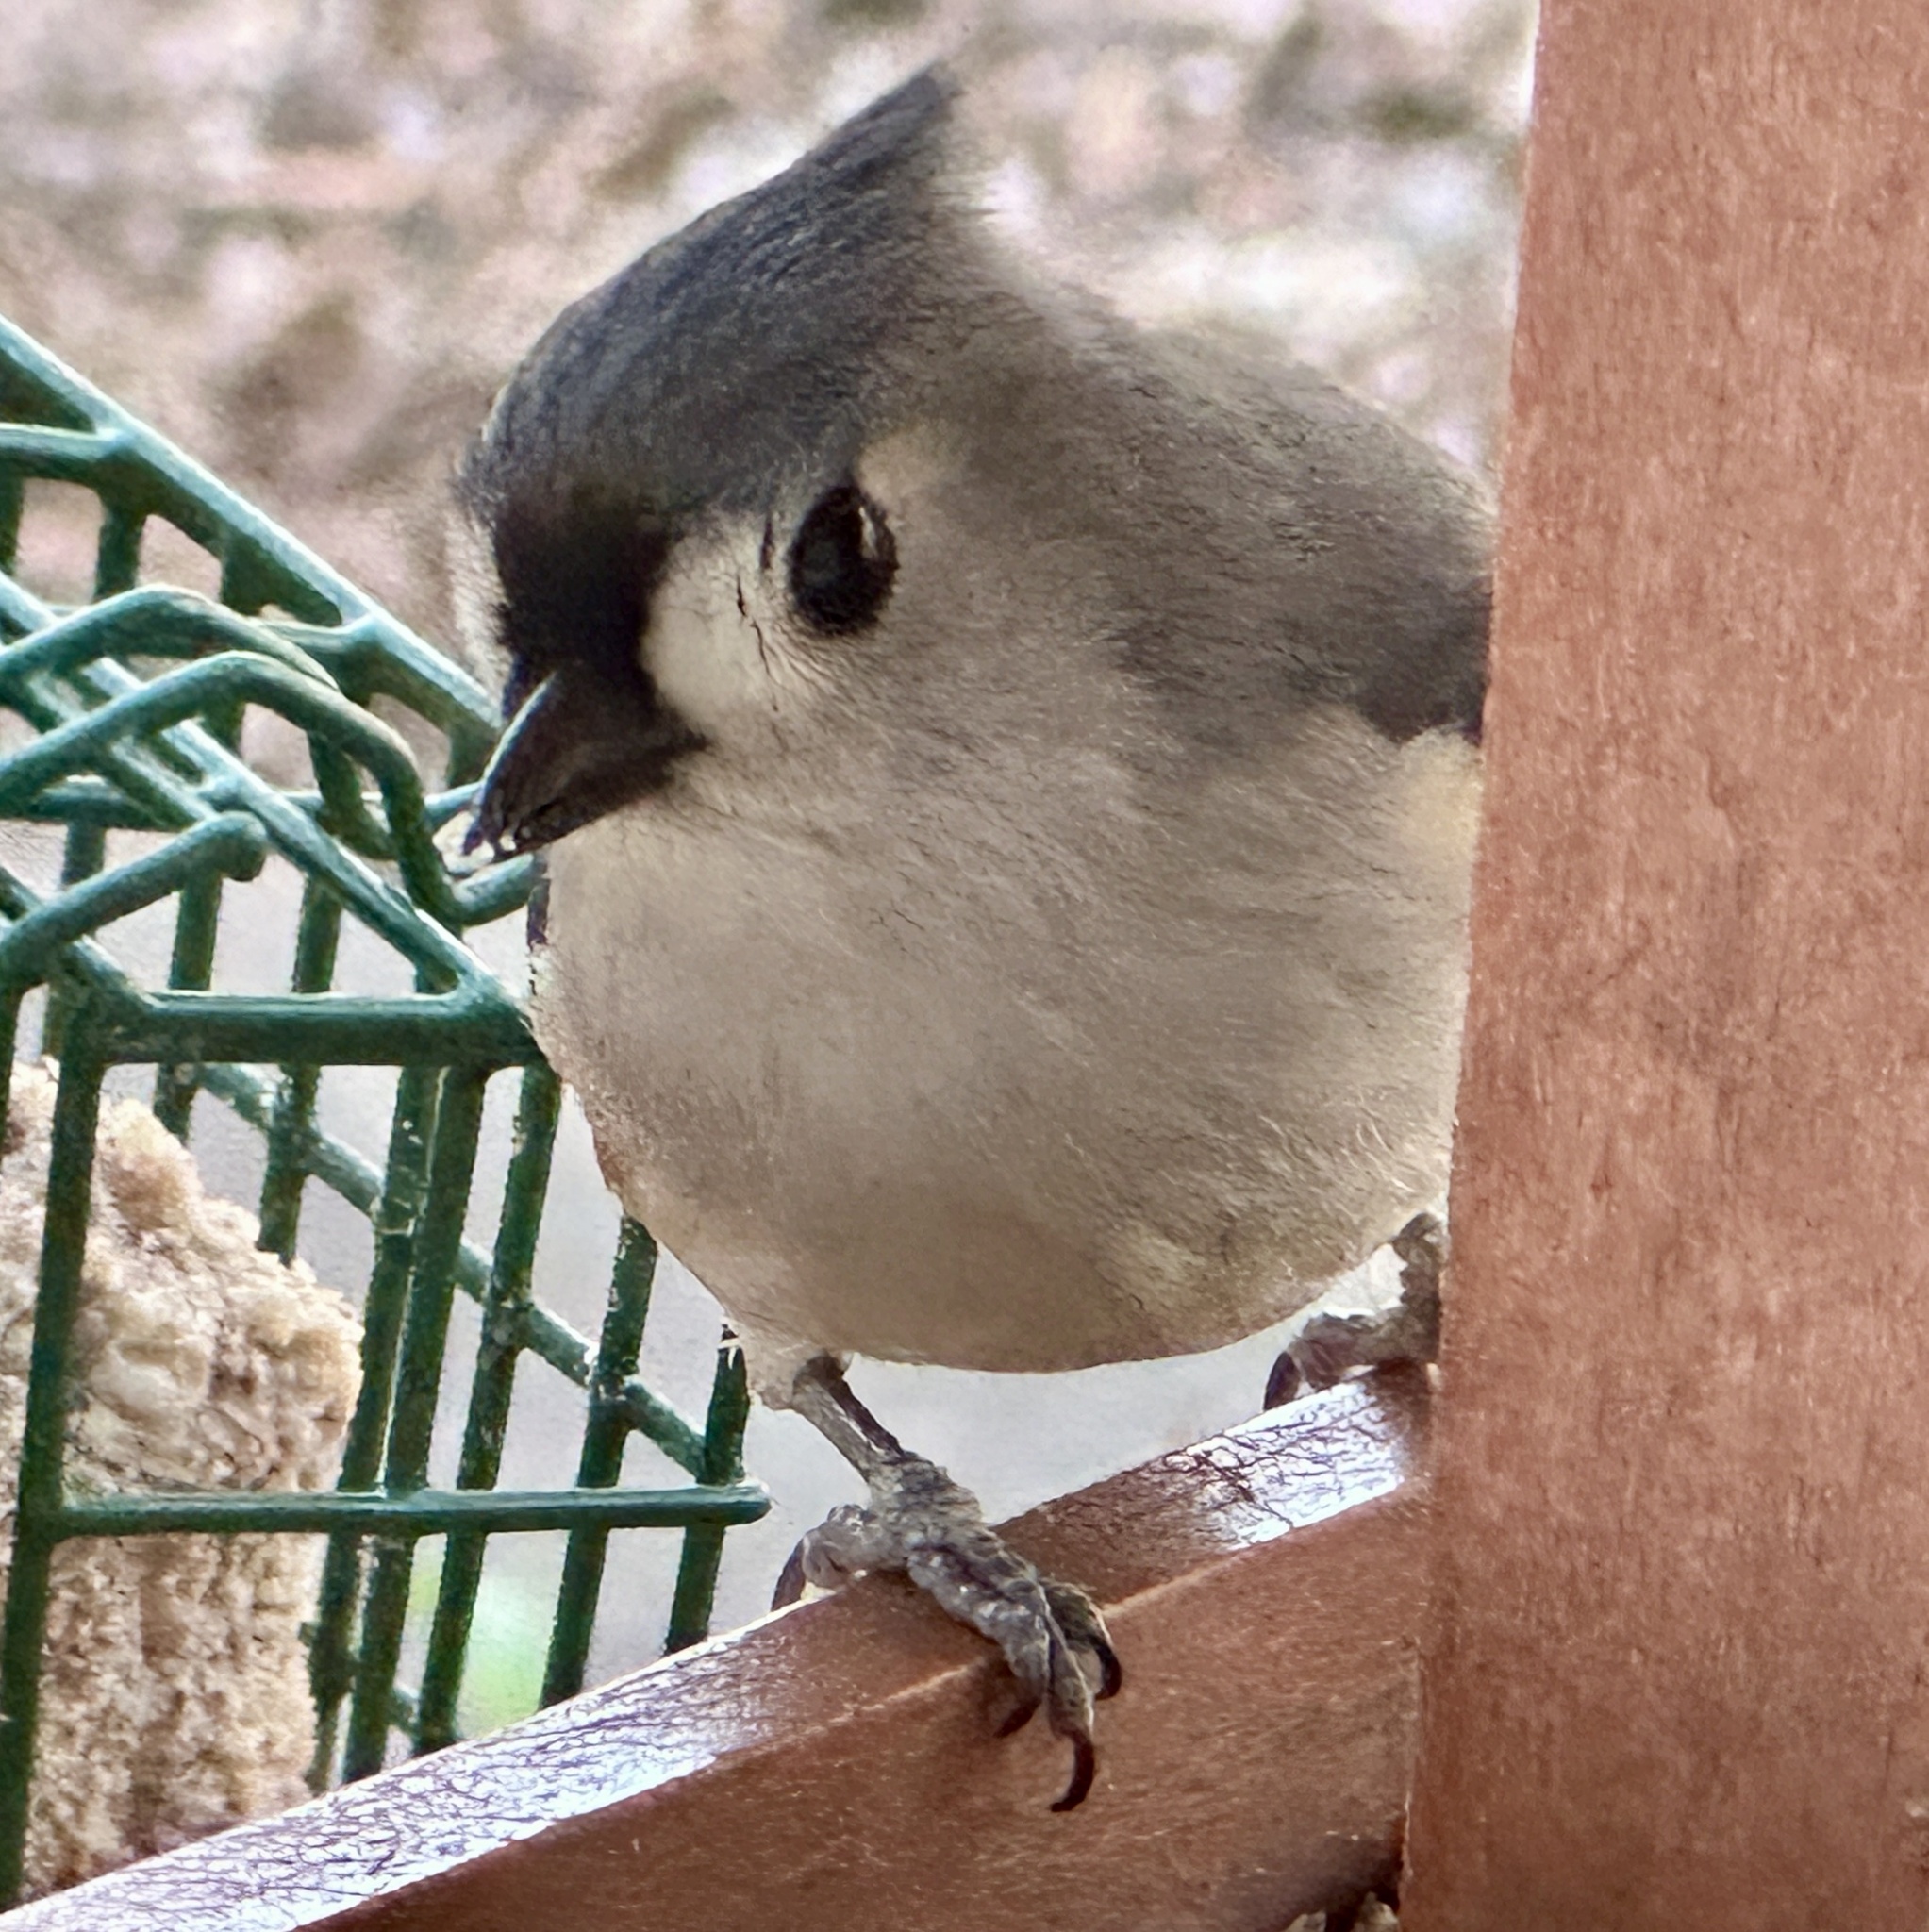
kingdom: Animalia
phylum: Chordata
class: Aves
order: Passeriformes
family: Paridae
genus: Baeolophus
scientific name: Baeolophus bicolor
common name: Tufted titmouse
